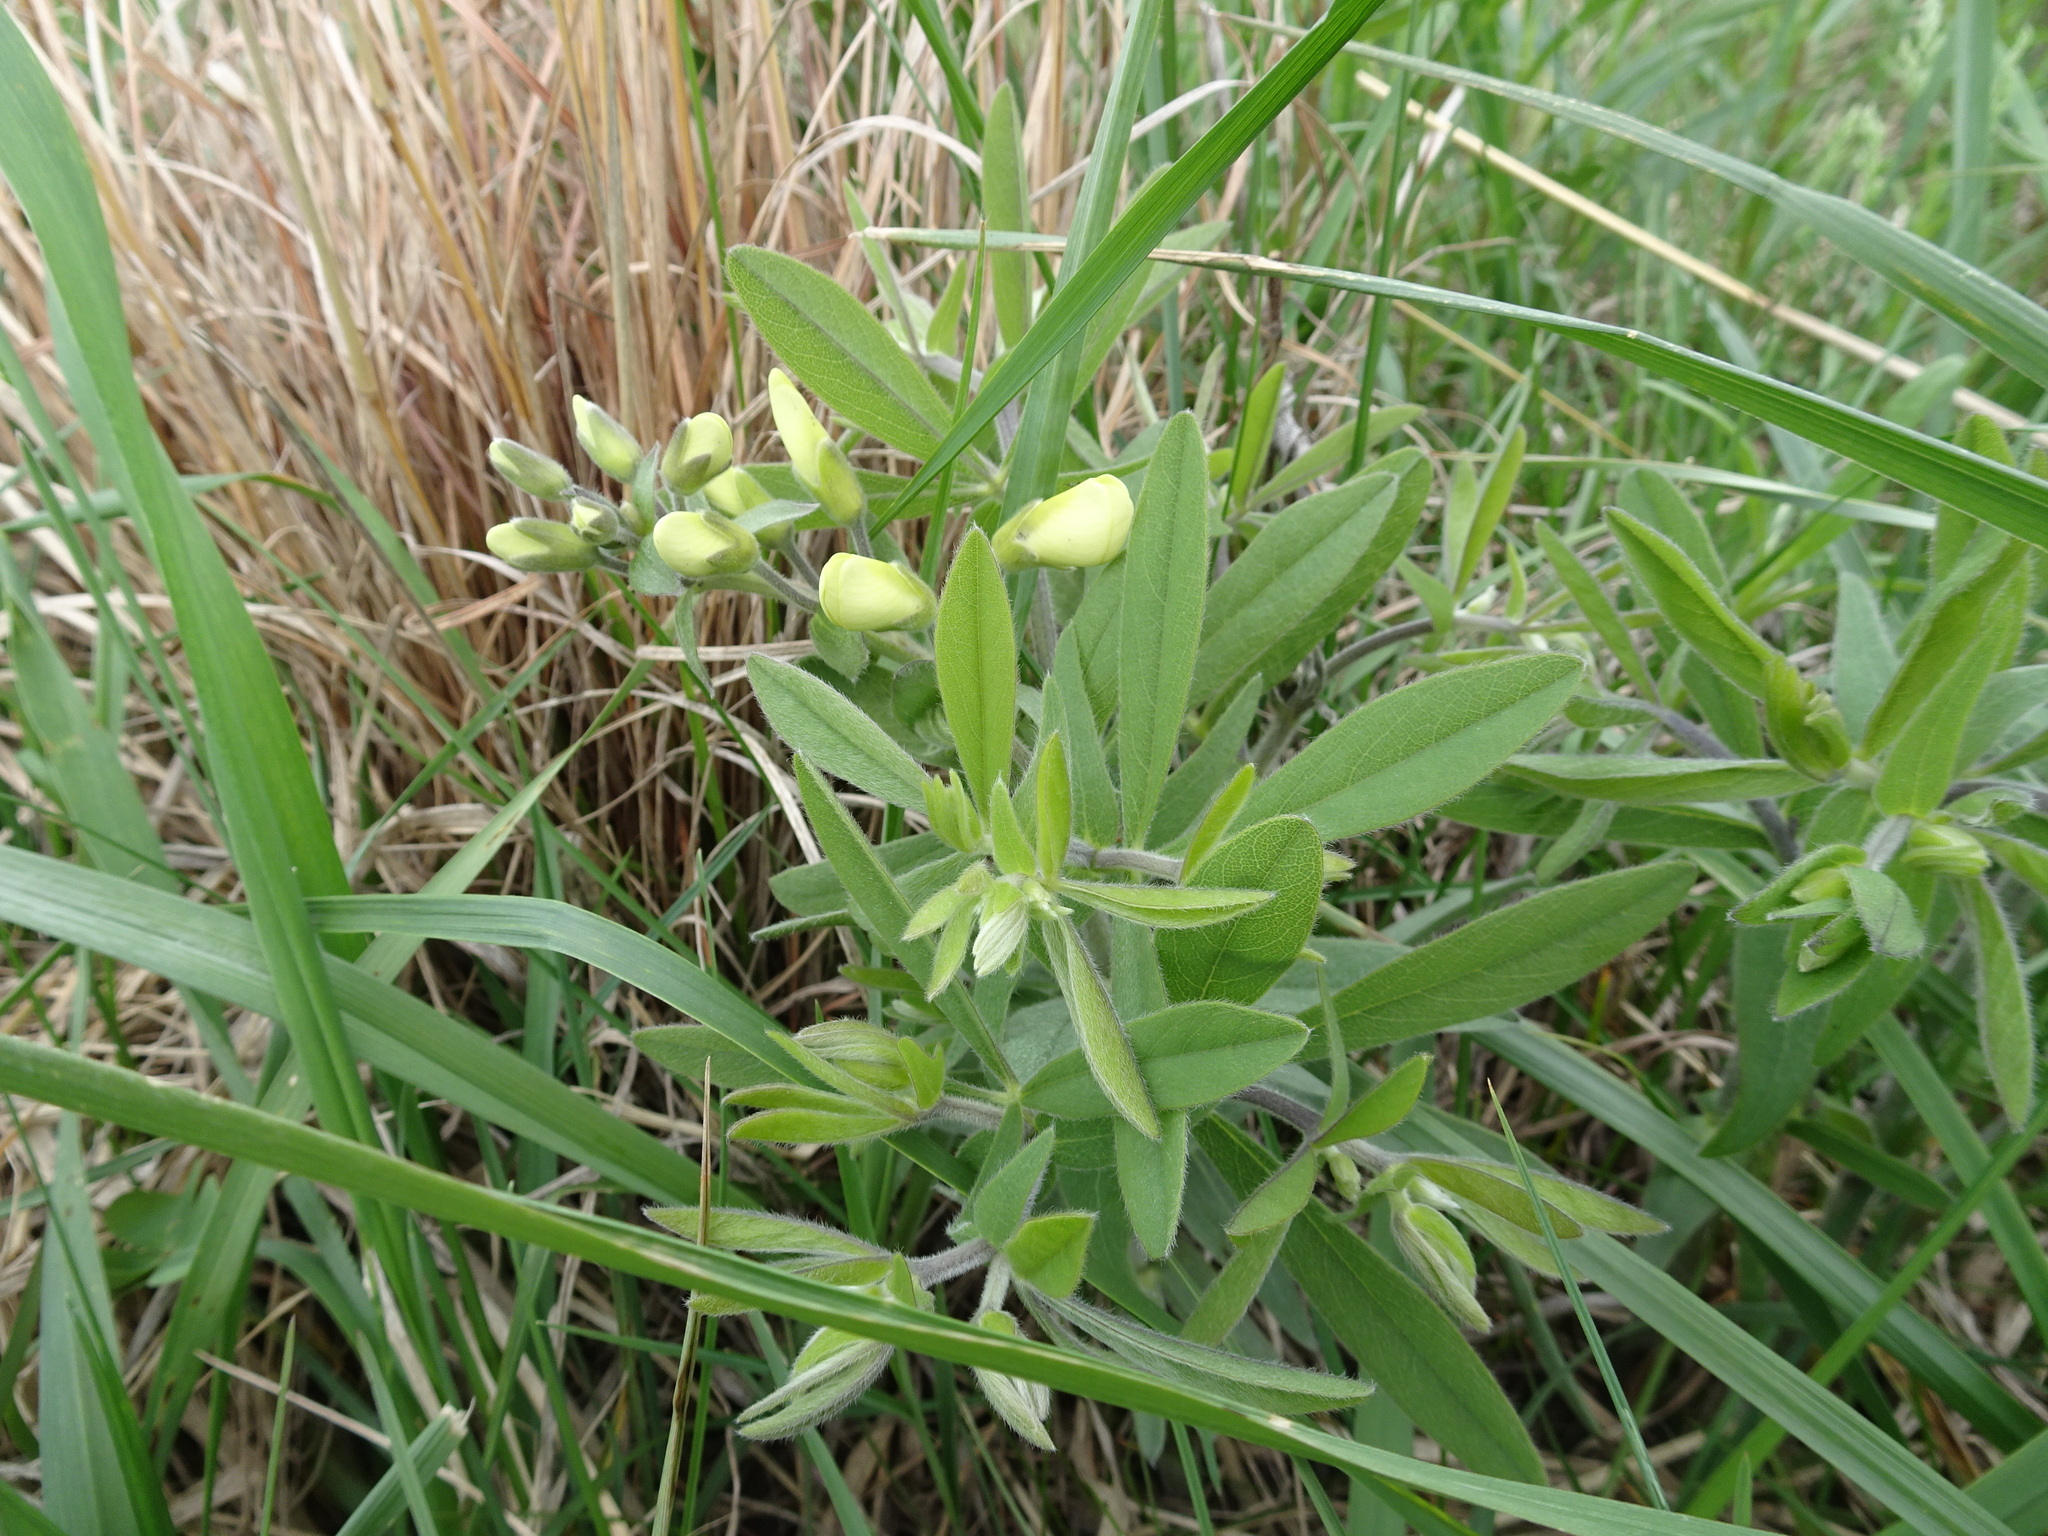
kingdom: Plantae
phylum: Tracheophyta
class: Magnoliopsida
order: Fabales
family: Fabaceae
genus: Baptisia
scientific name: Baptisia bracteata
